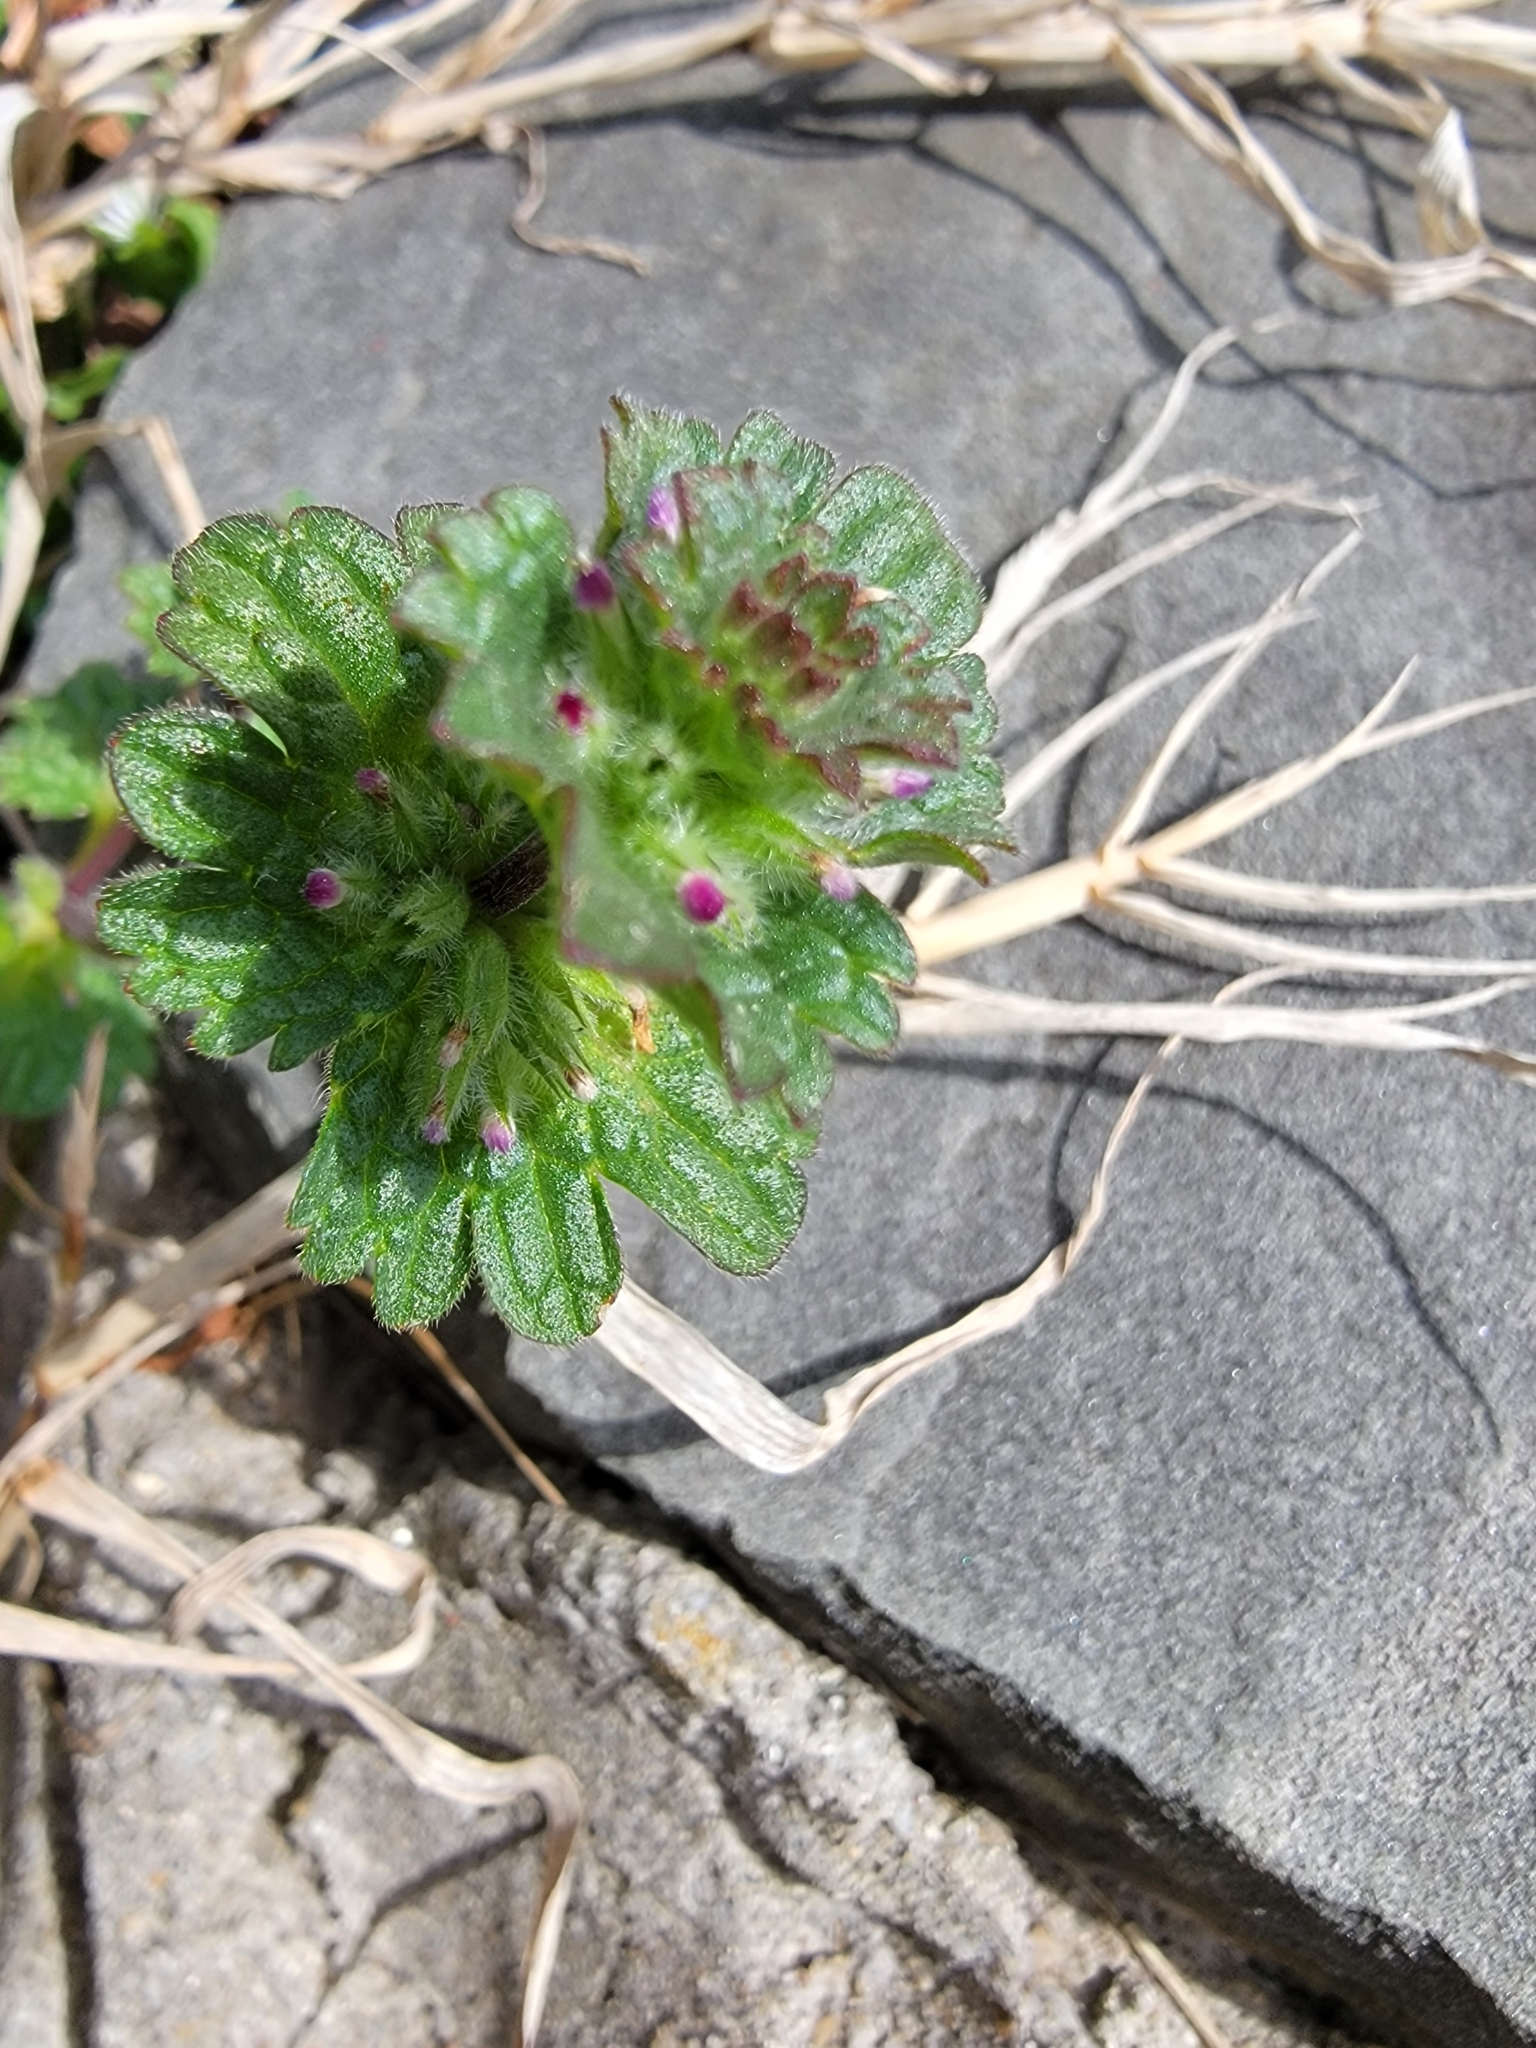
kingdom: Plantae
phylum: Tracheophyta
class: Magnoliopsida
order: Lamiales
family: Lamiaceae
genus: Lamium
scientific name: Lamium amplexicaule
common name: Henbit dead-nettle
